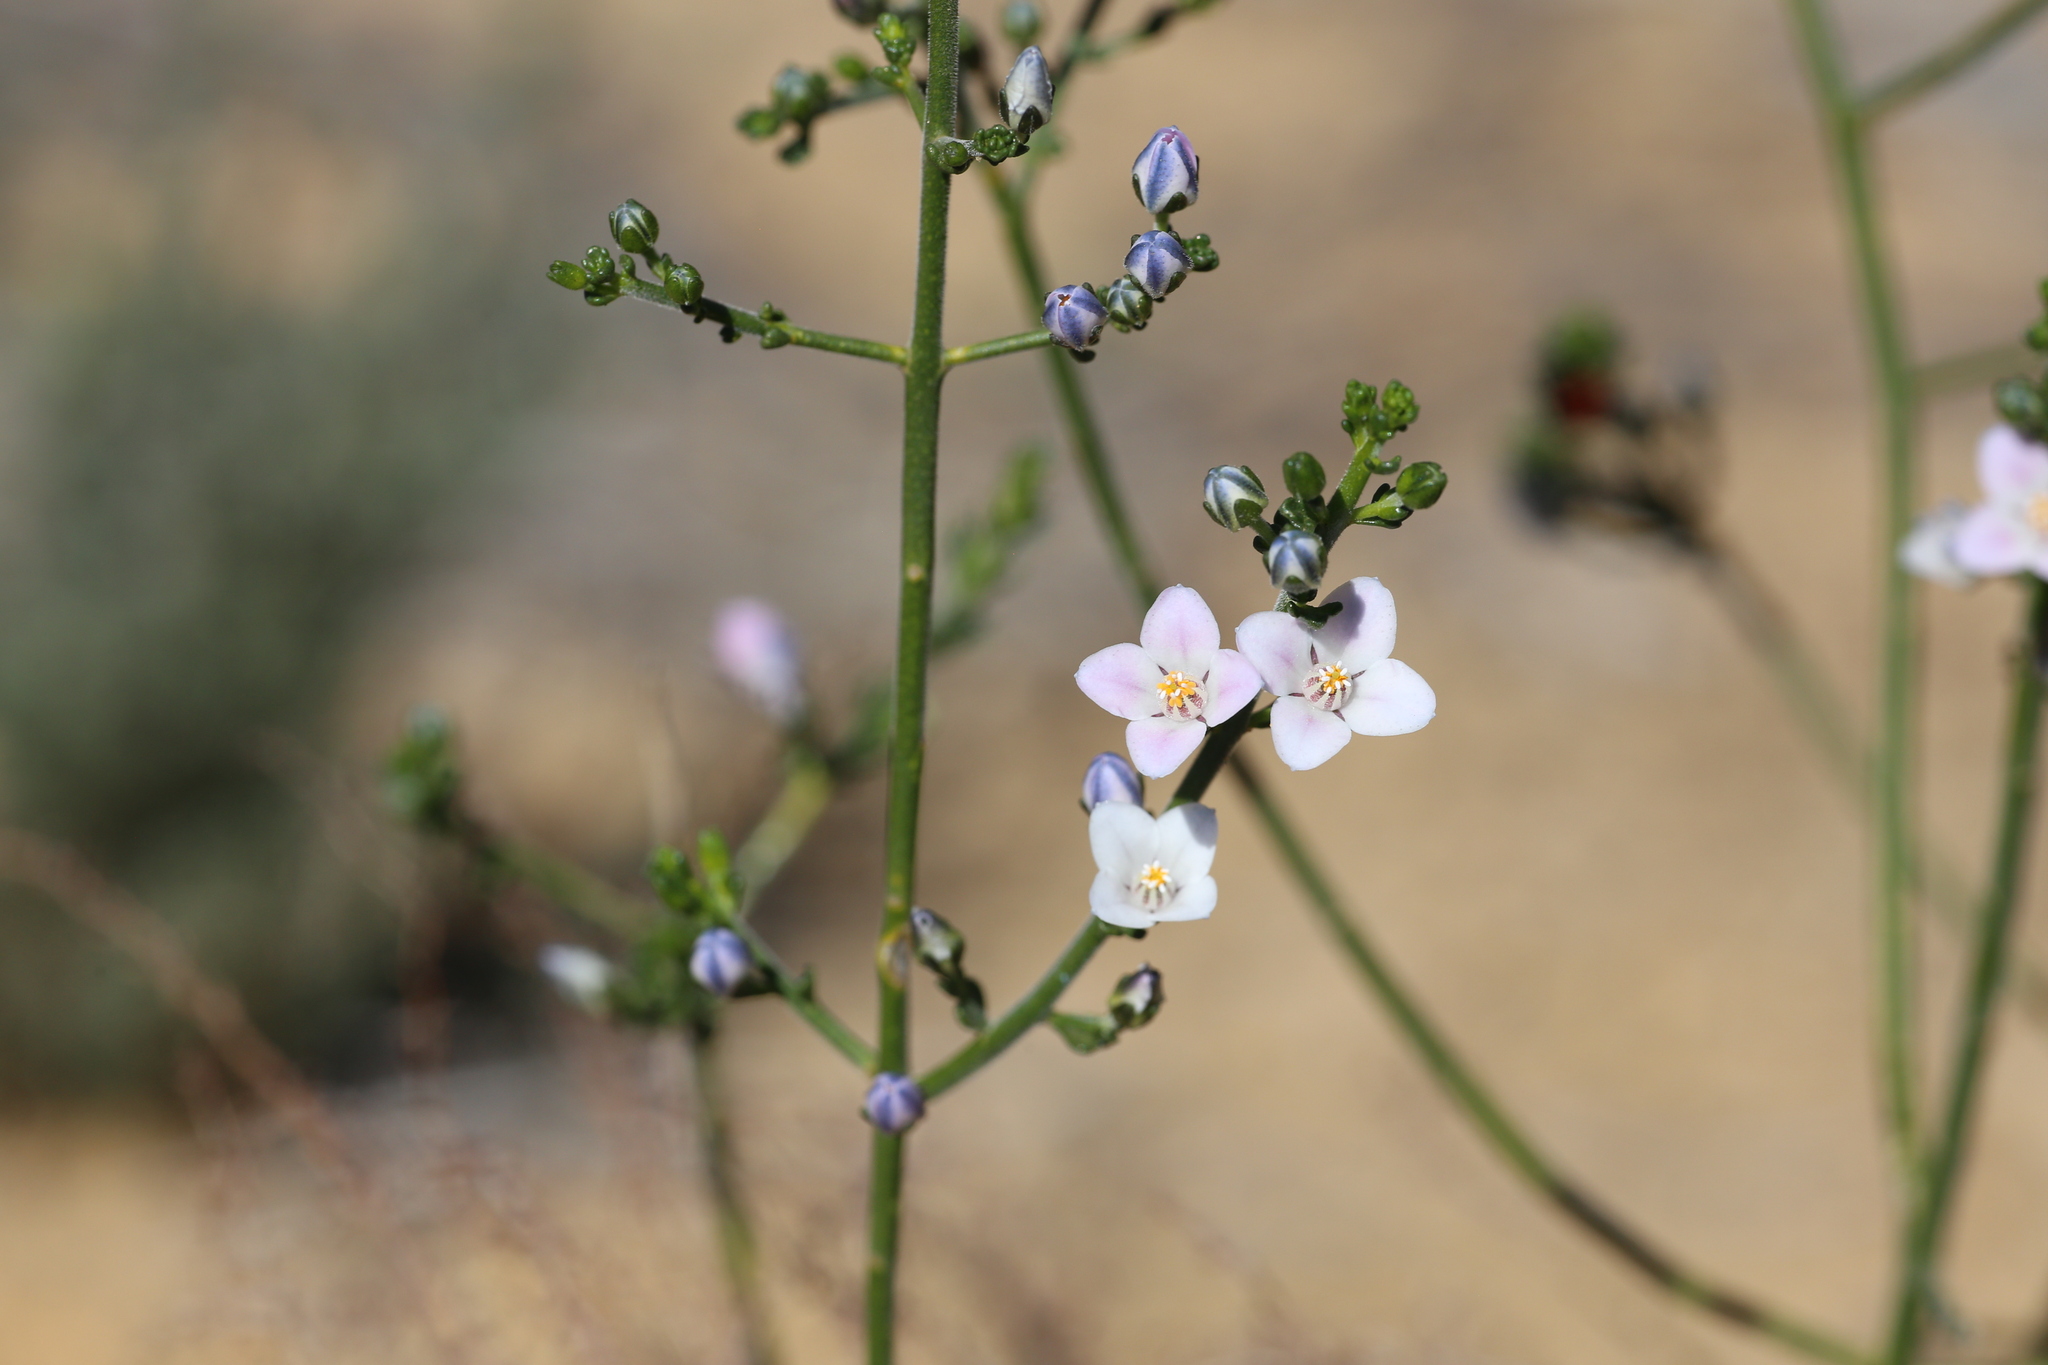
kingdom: Plantae
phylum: Tracheophyta
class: Magnoliopsida
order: Sapindales
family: Rutaceae
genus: Cyanothamnus
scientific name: Cyanothamnus coerulescens
